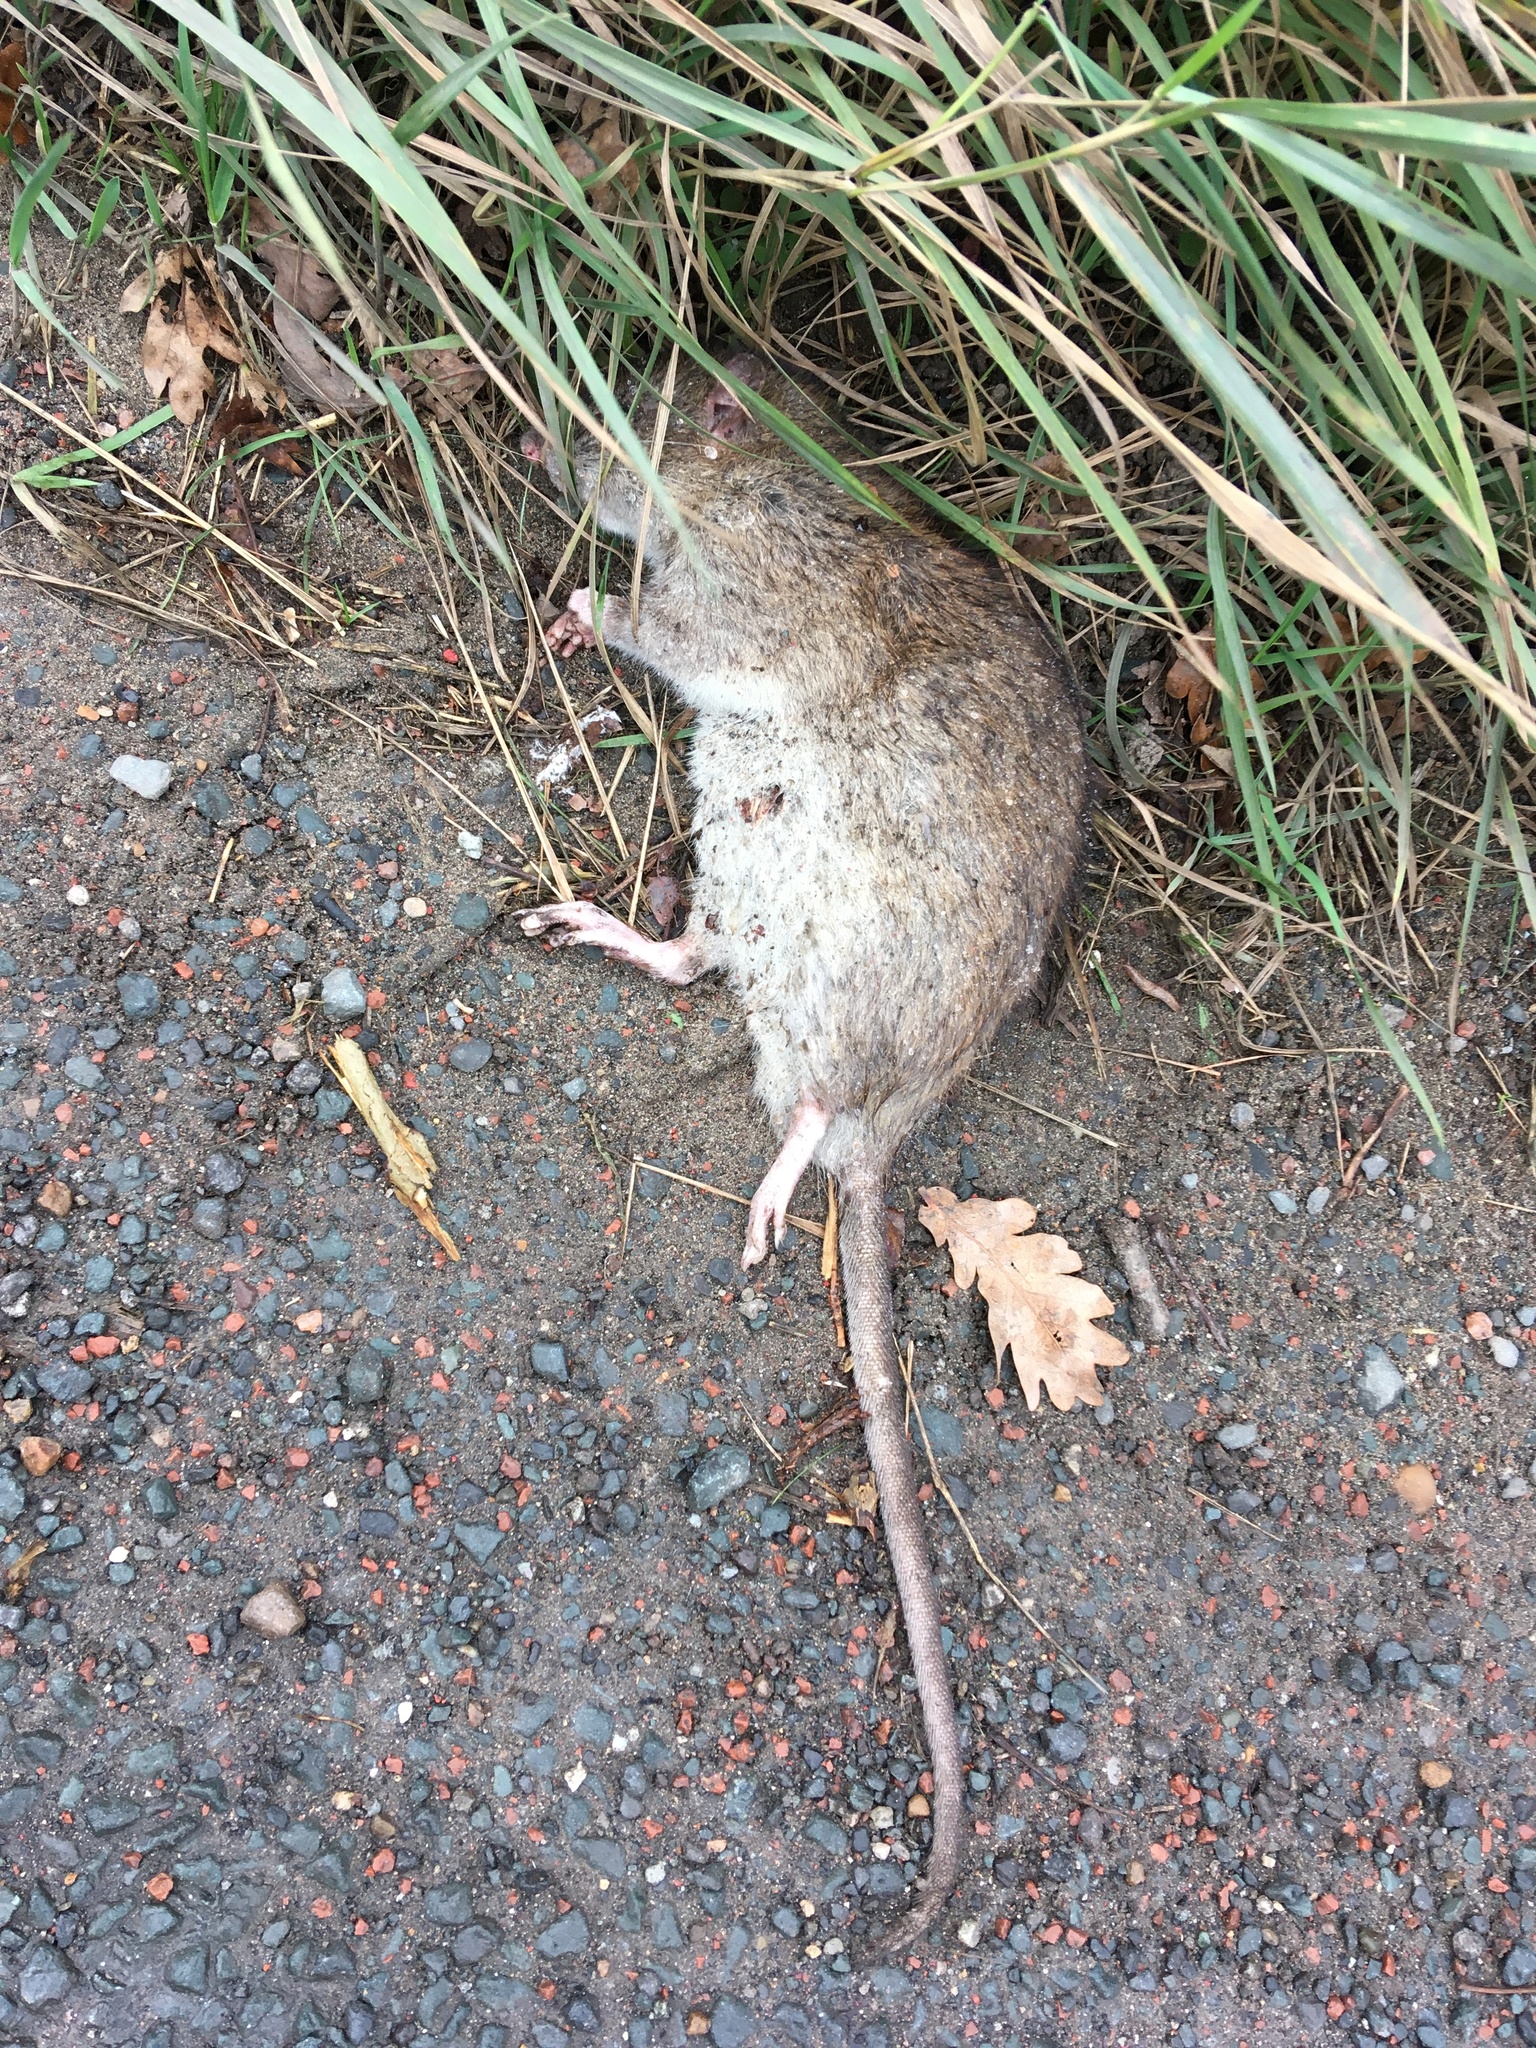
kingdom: Animalia
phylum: Chordata
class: Mammalia
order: Rodentia
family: Muridae
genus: Rattus
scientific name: Rattus norvegicus
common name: Brown rat
